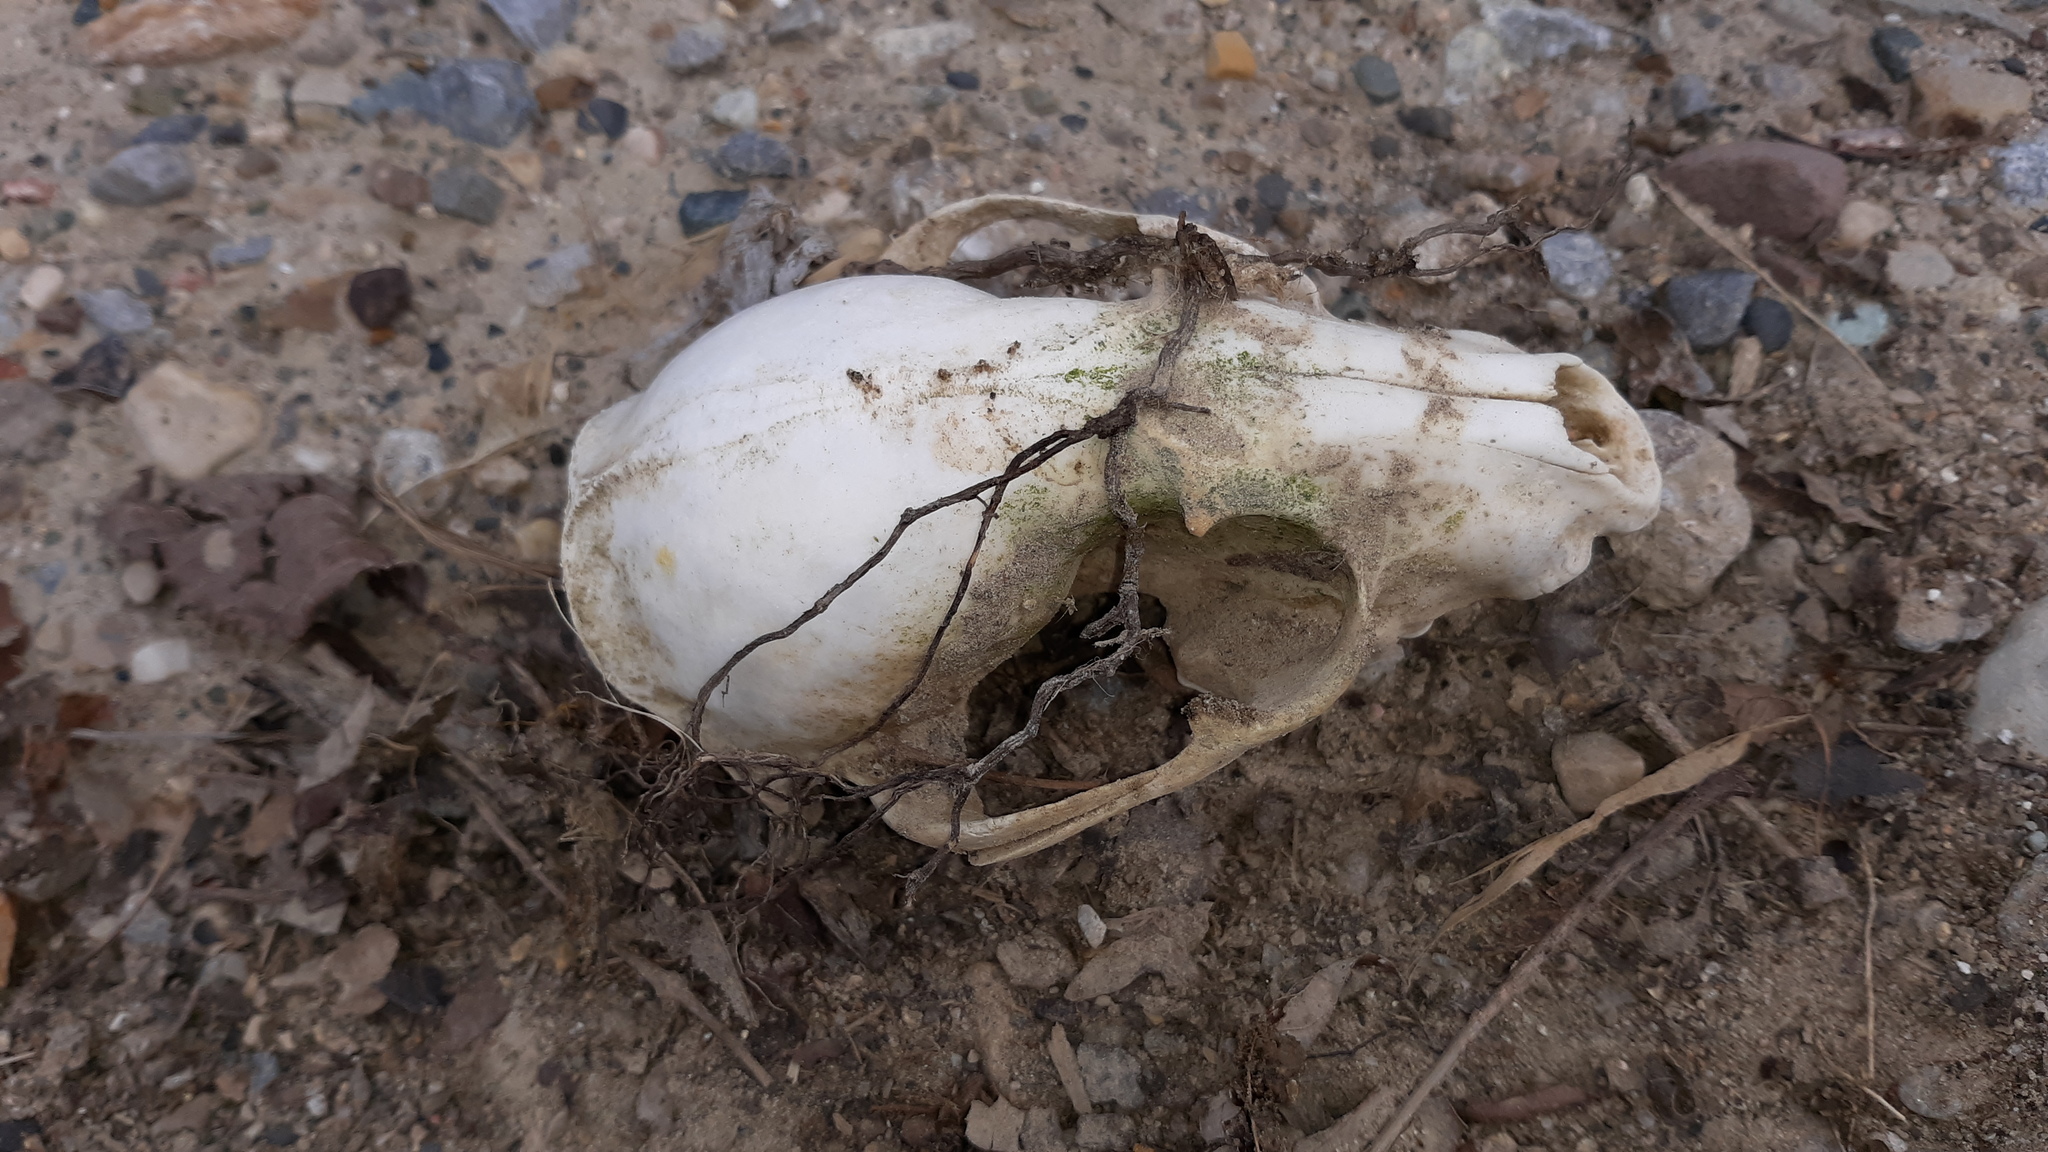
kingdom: Animalia
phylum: Chordata
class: Mammalia
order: Carnivora
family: Procyonidae
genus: Procyon
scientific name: Procyon lotor
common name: Raccoon
